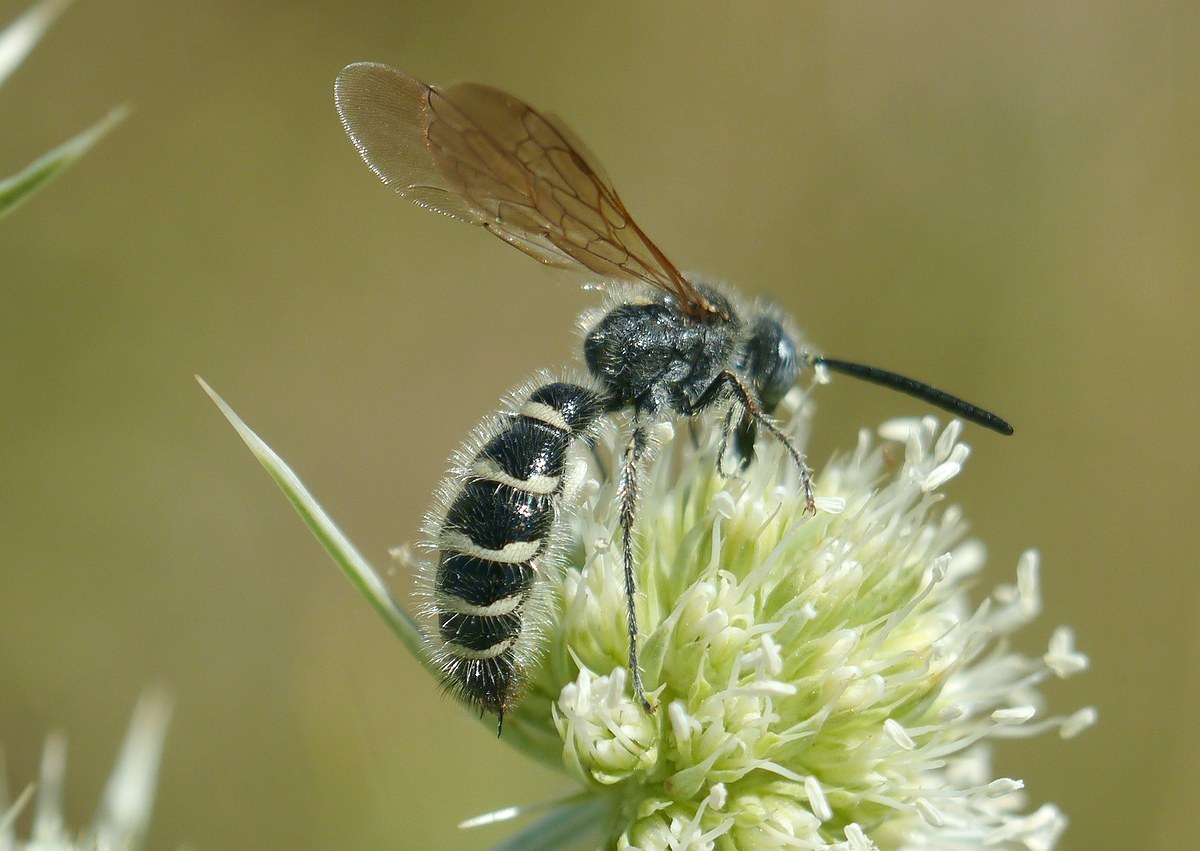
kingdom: Animalia
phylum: Arthropoda
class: Insecta
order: Hymenoptera
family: Scoliidae
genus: Colpa
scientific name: Colpa quinquecincta
